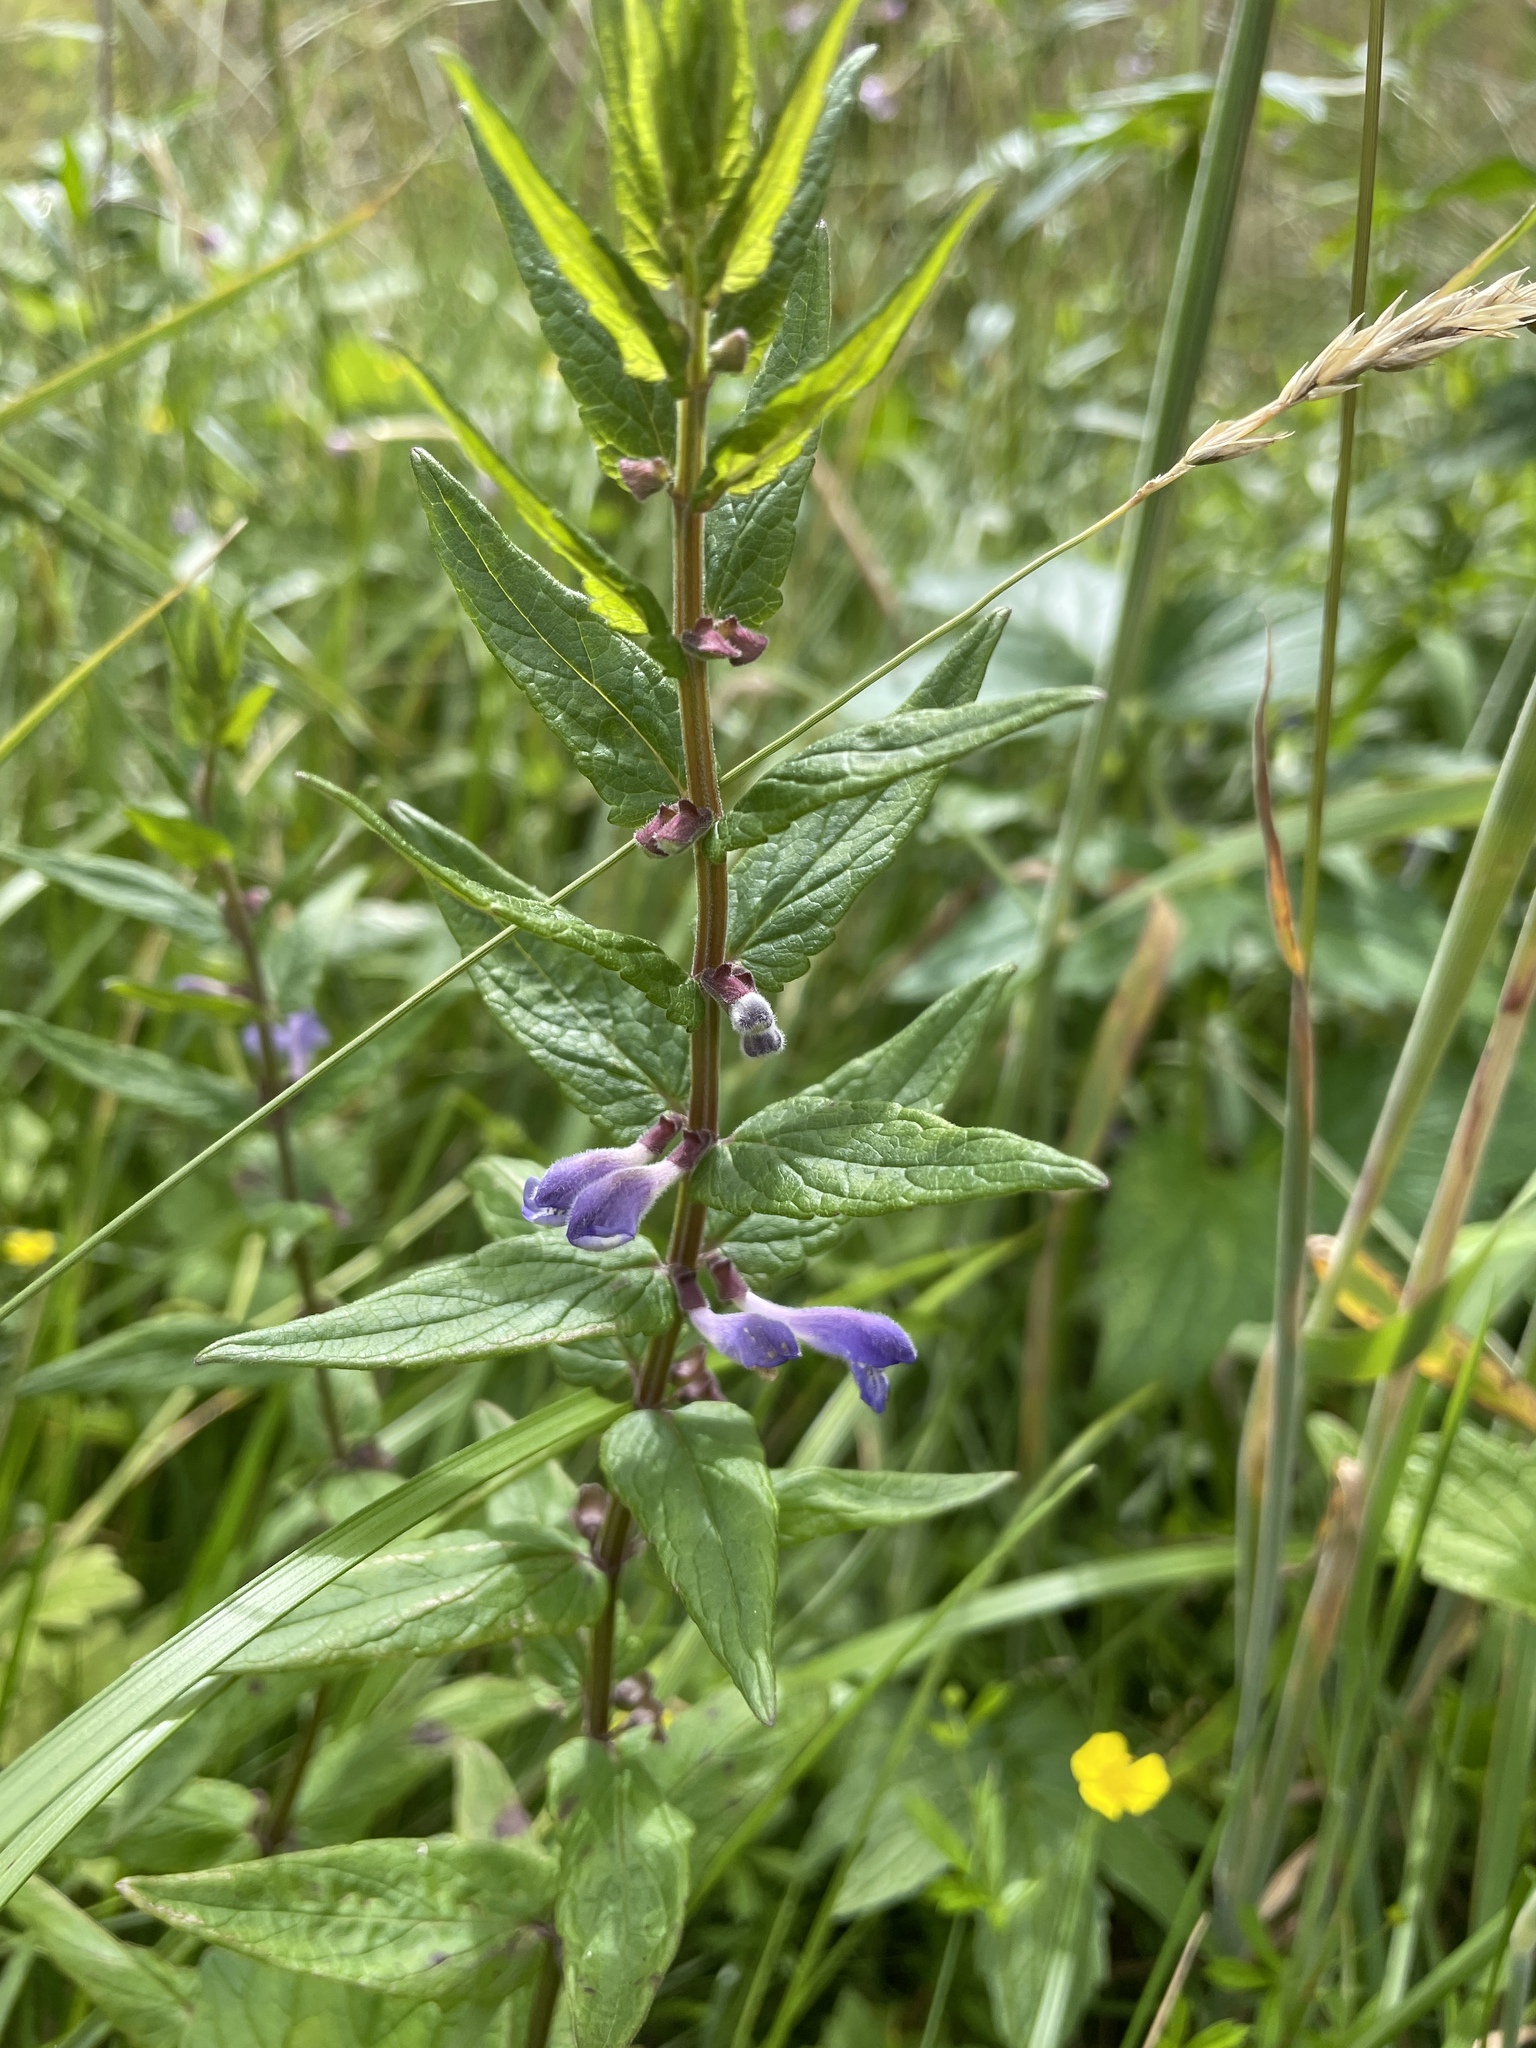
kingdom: Plantae
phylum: Tracheophyta
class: Magnoliopsida
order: Lamiales
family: Lamiaceae
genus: Scutellaria
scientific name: Scutellaria galericulata
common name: Skullcap
